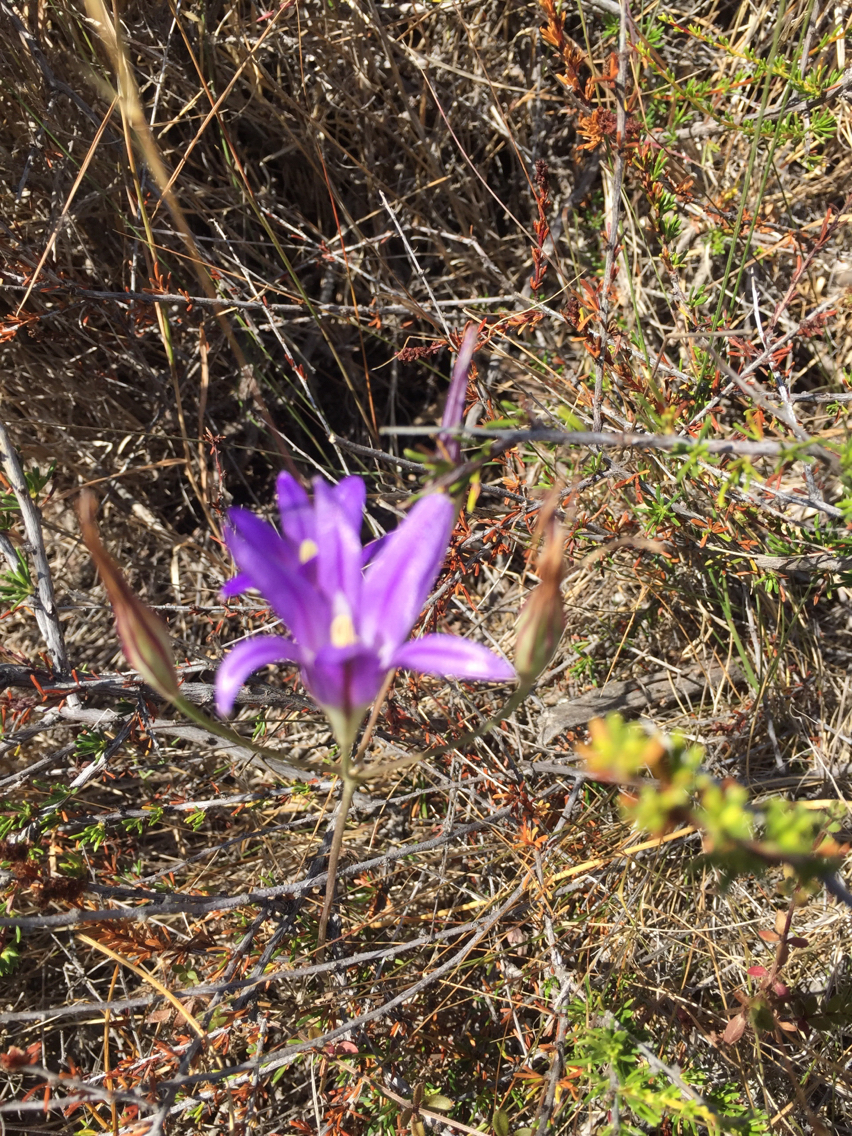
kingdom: Plantae
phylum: Tracheophyta
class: Liliopsida
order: Asparagales
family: Asparagaceae
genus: Brodiaea
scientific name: Brodiaea elegans
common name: Elegant cluster-lily
